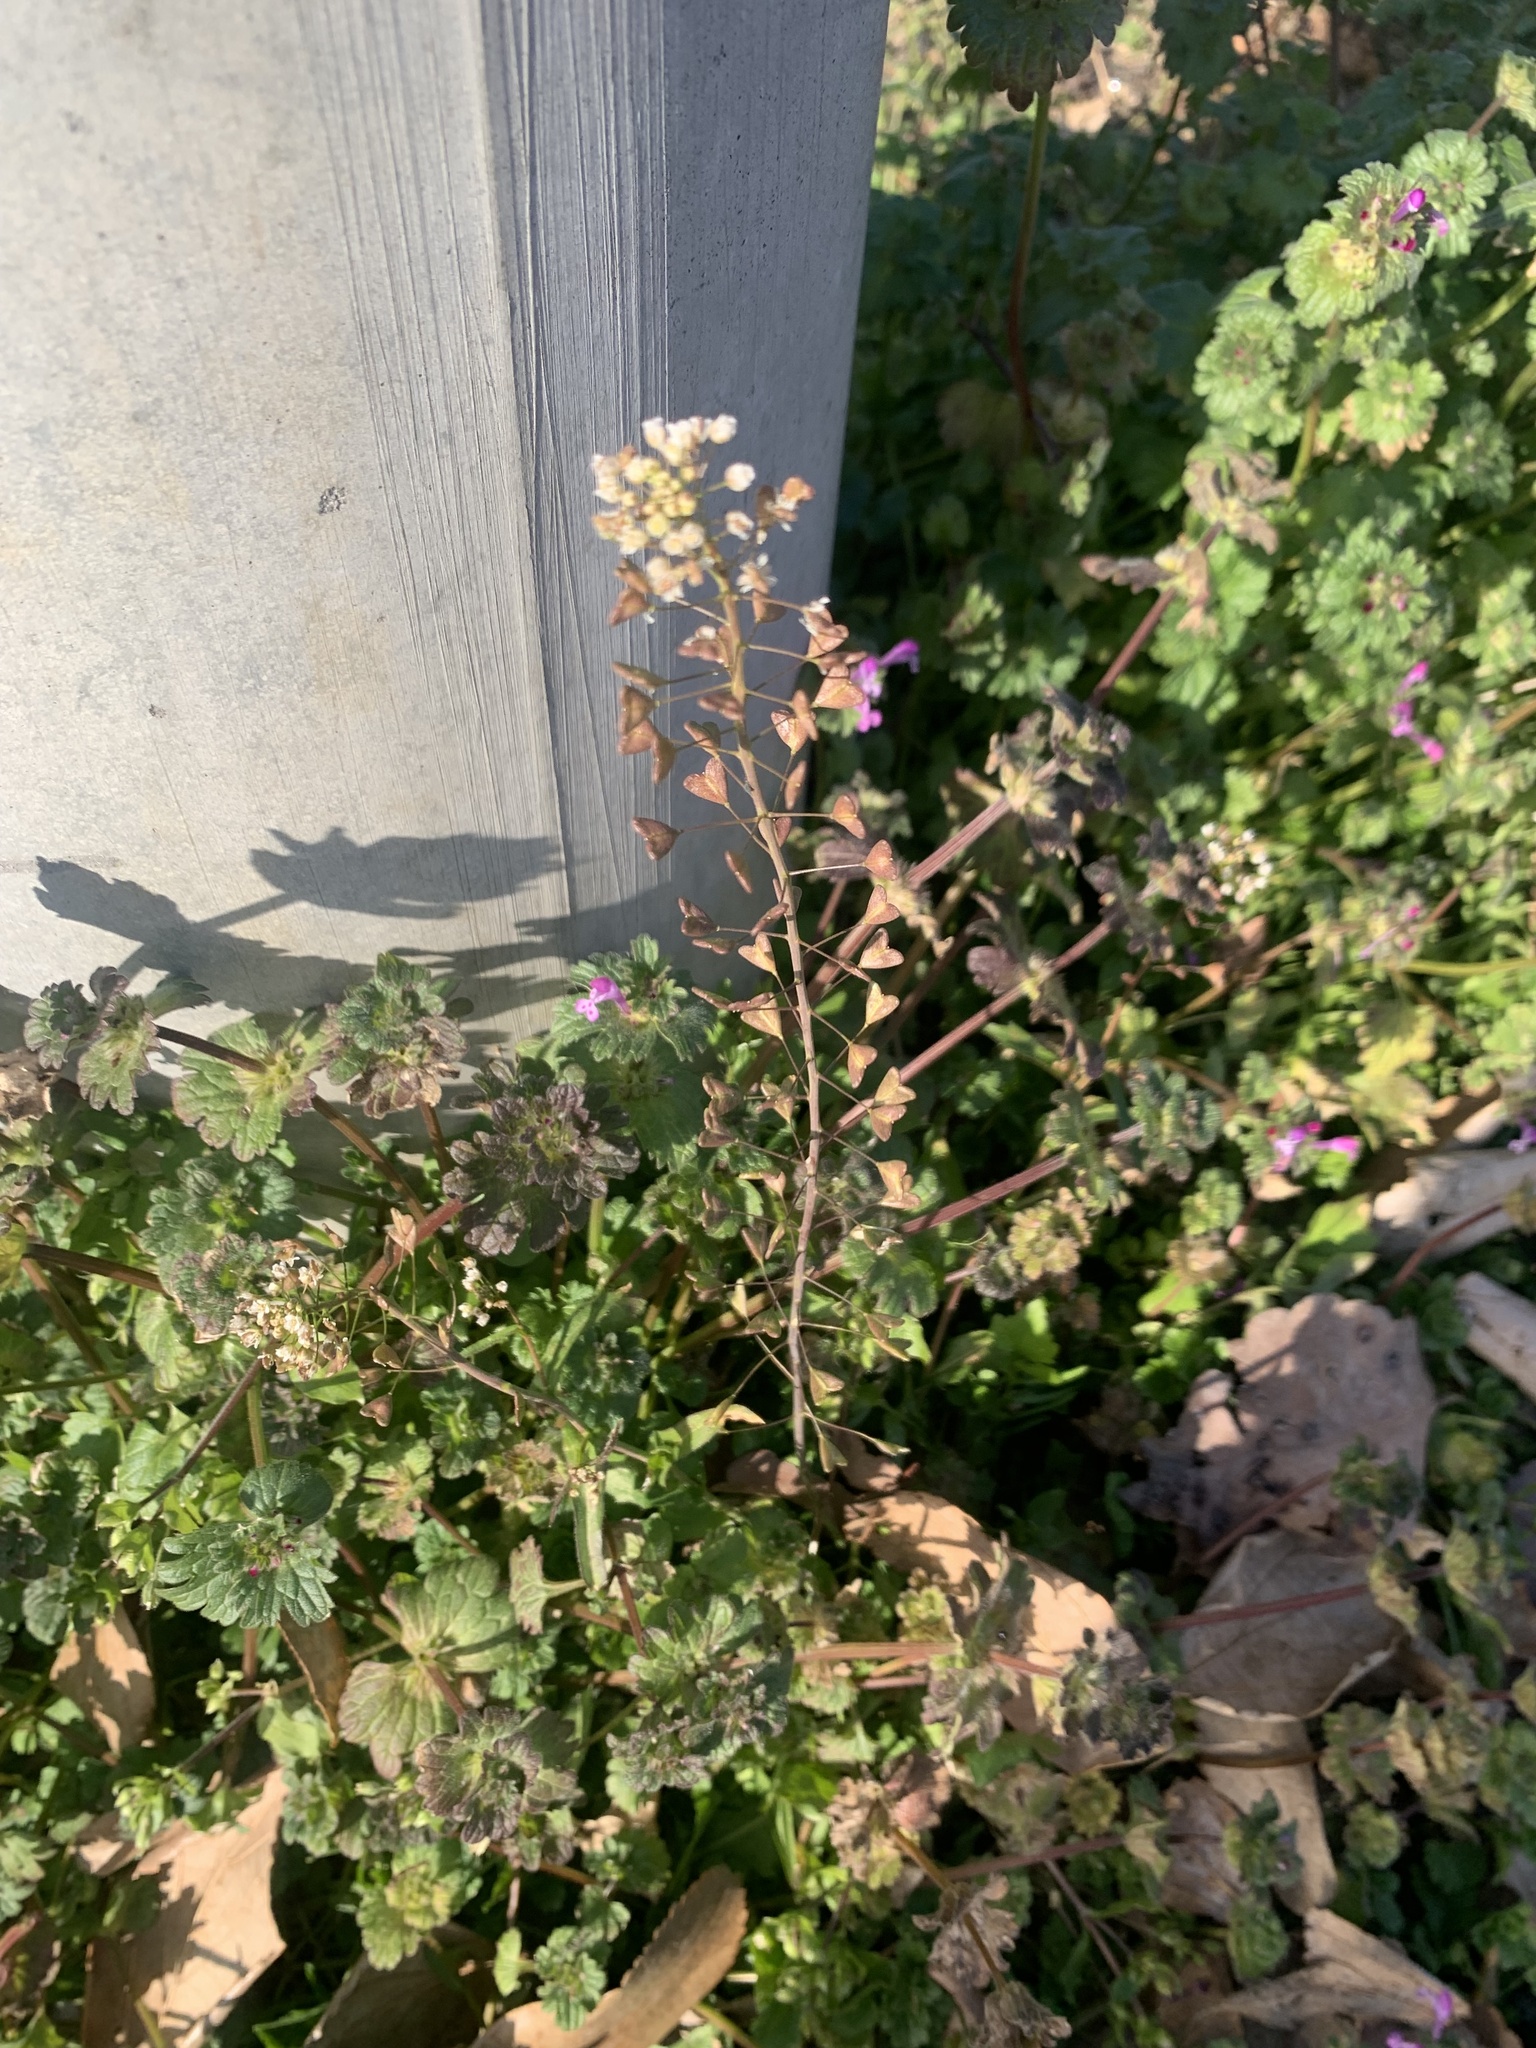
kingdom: Plantae
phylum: Tracheophyta
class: Magnoliopsida
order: Brassicales
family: Brassicaceae
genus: Capsella
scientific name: Capsella bursa-pastoris
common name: Shepherd's purse
